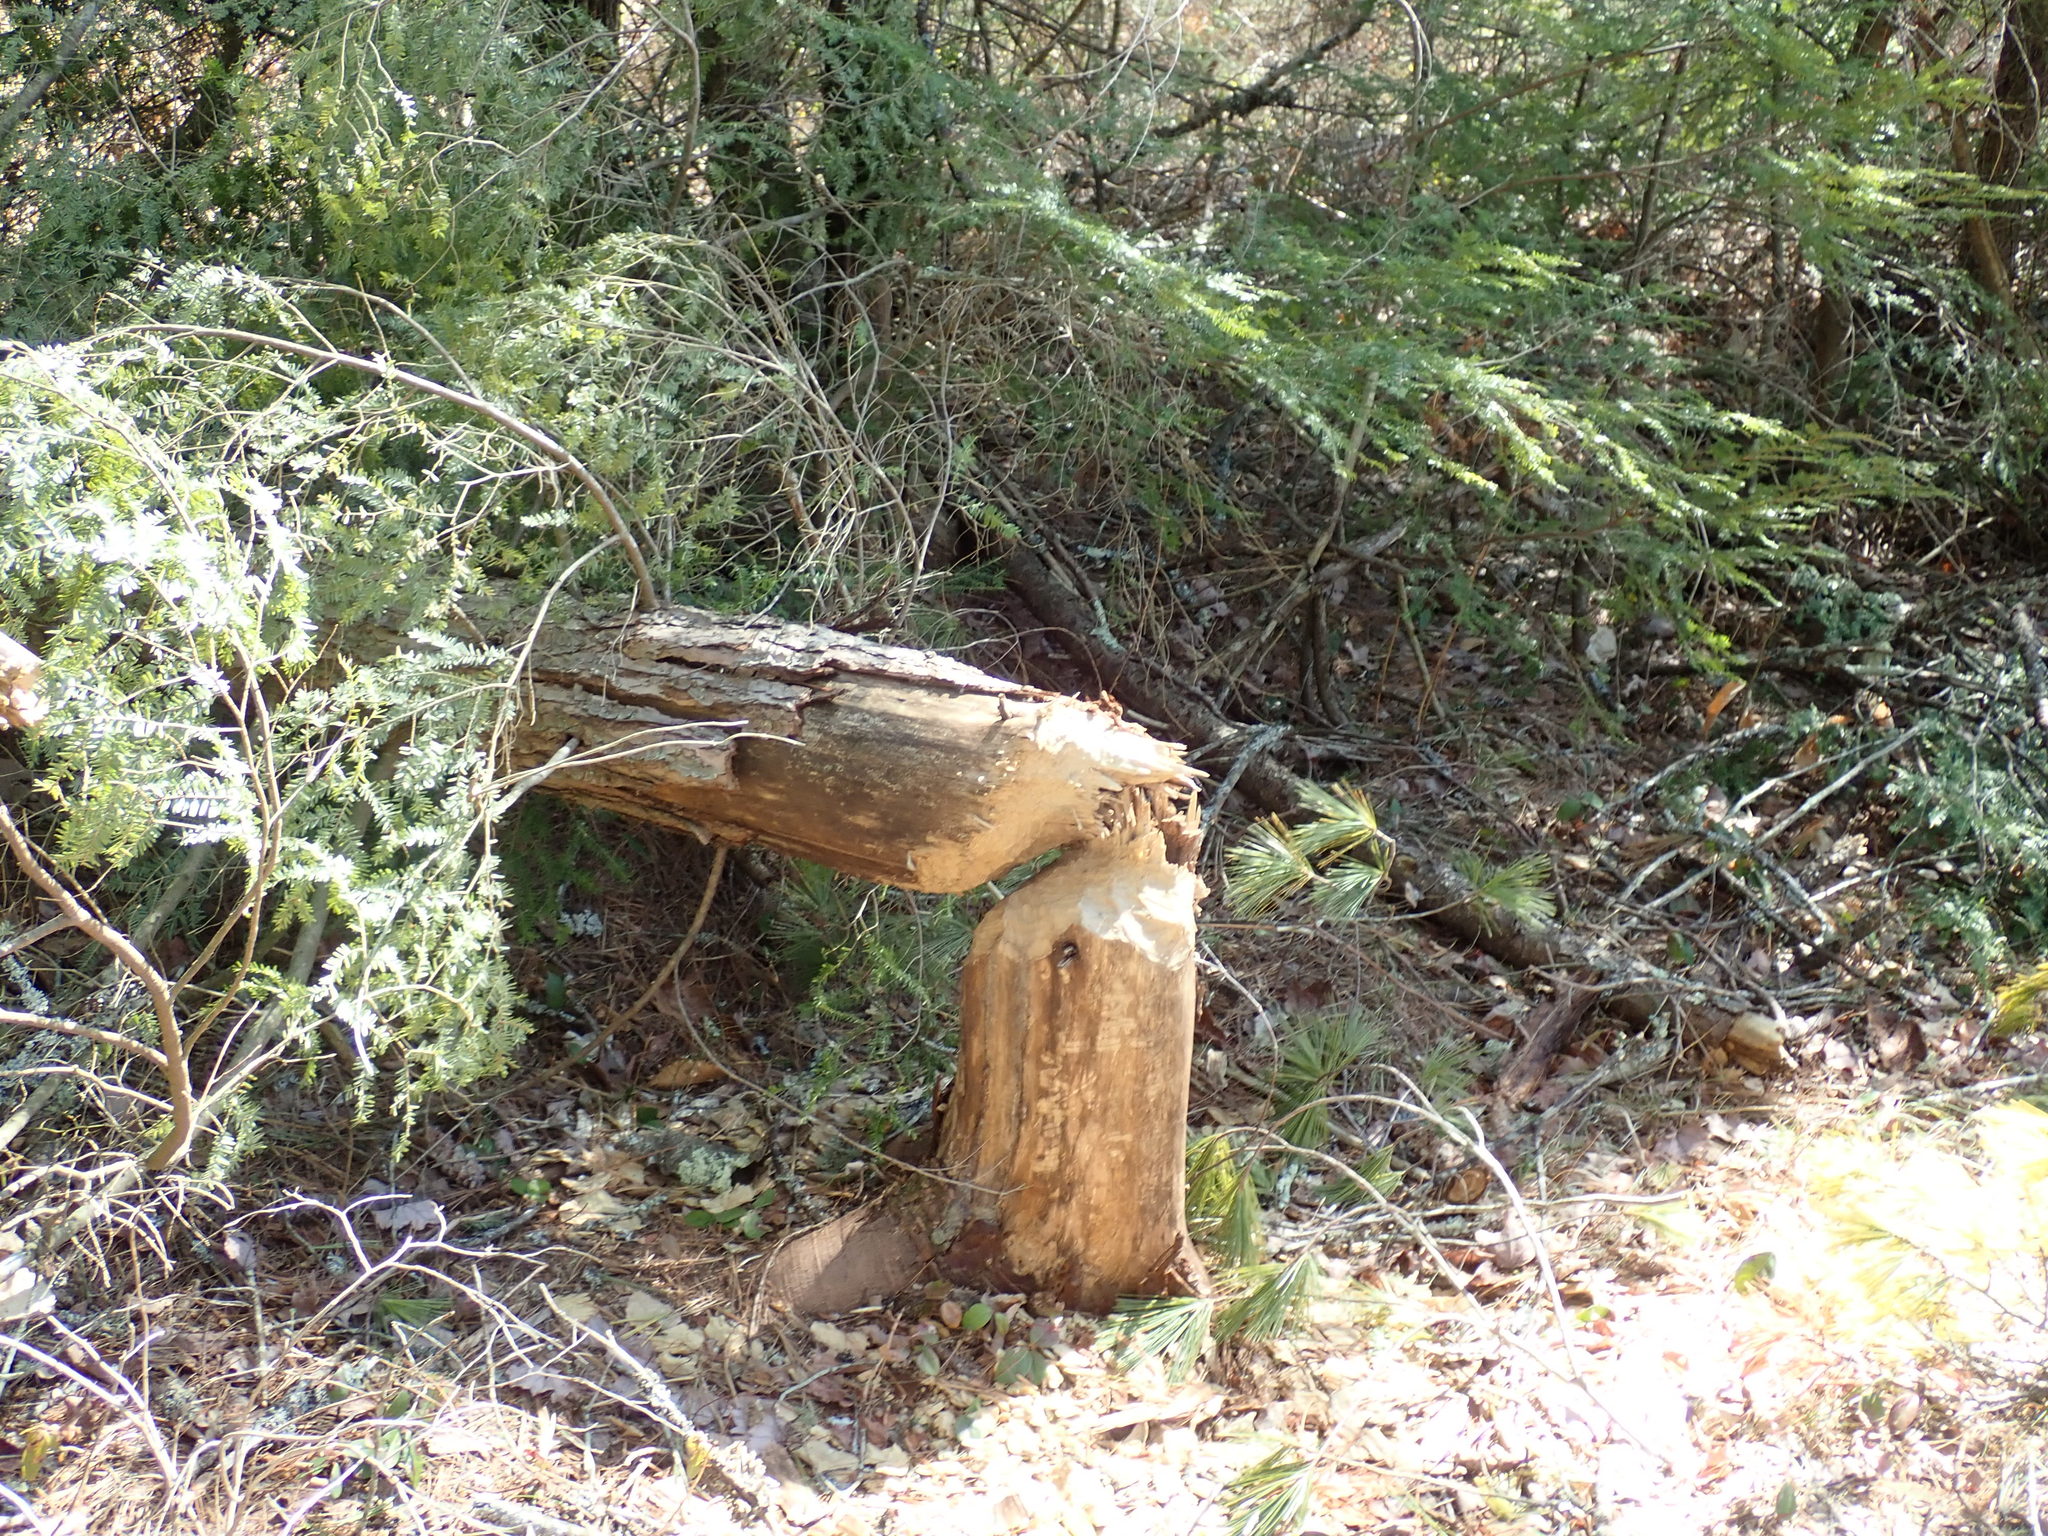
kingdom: Animalia
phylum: Chordata
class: Mammalia
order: Rodentia
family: Castoridae
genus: Castor
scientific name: Castor canadensis
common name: American beaver
